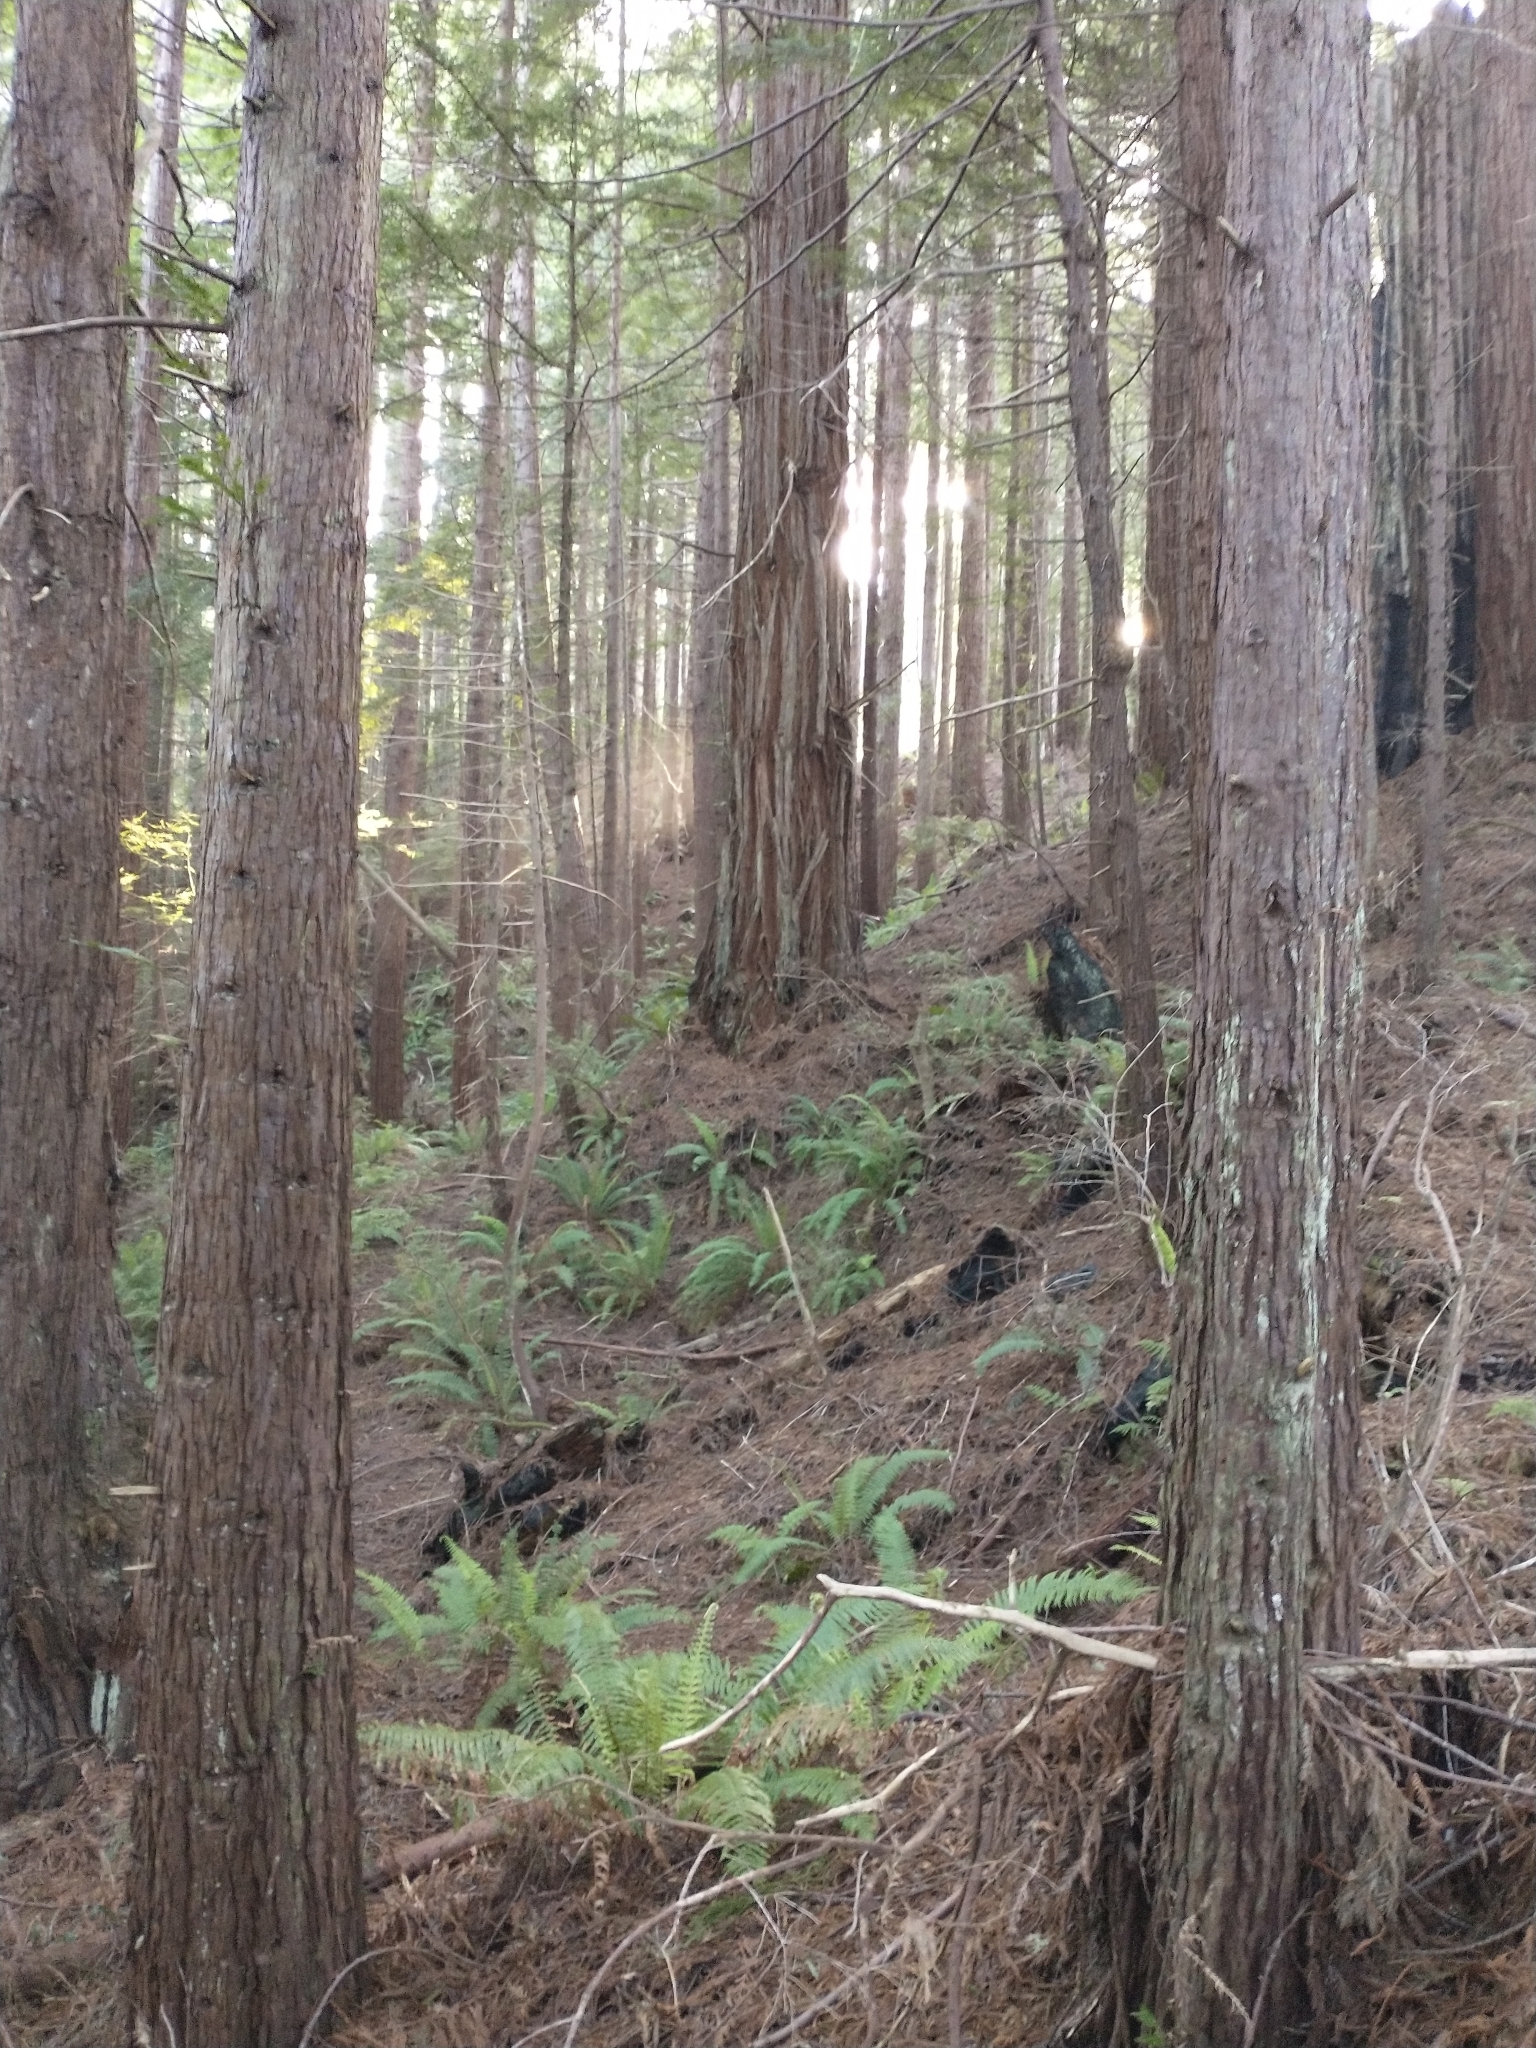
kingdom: Plantae
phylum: Tracheophyta
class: Pinopsida
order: Pinales
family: Cupressaceae
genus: Sequoia
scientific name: Sequoia sempervirens
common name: Coast redwood
